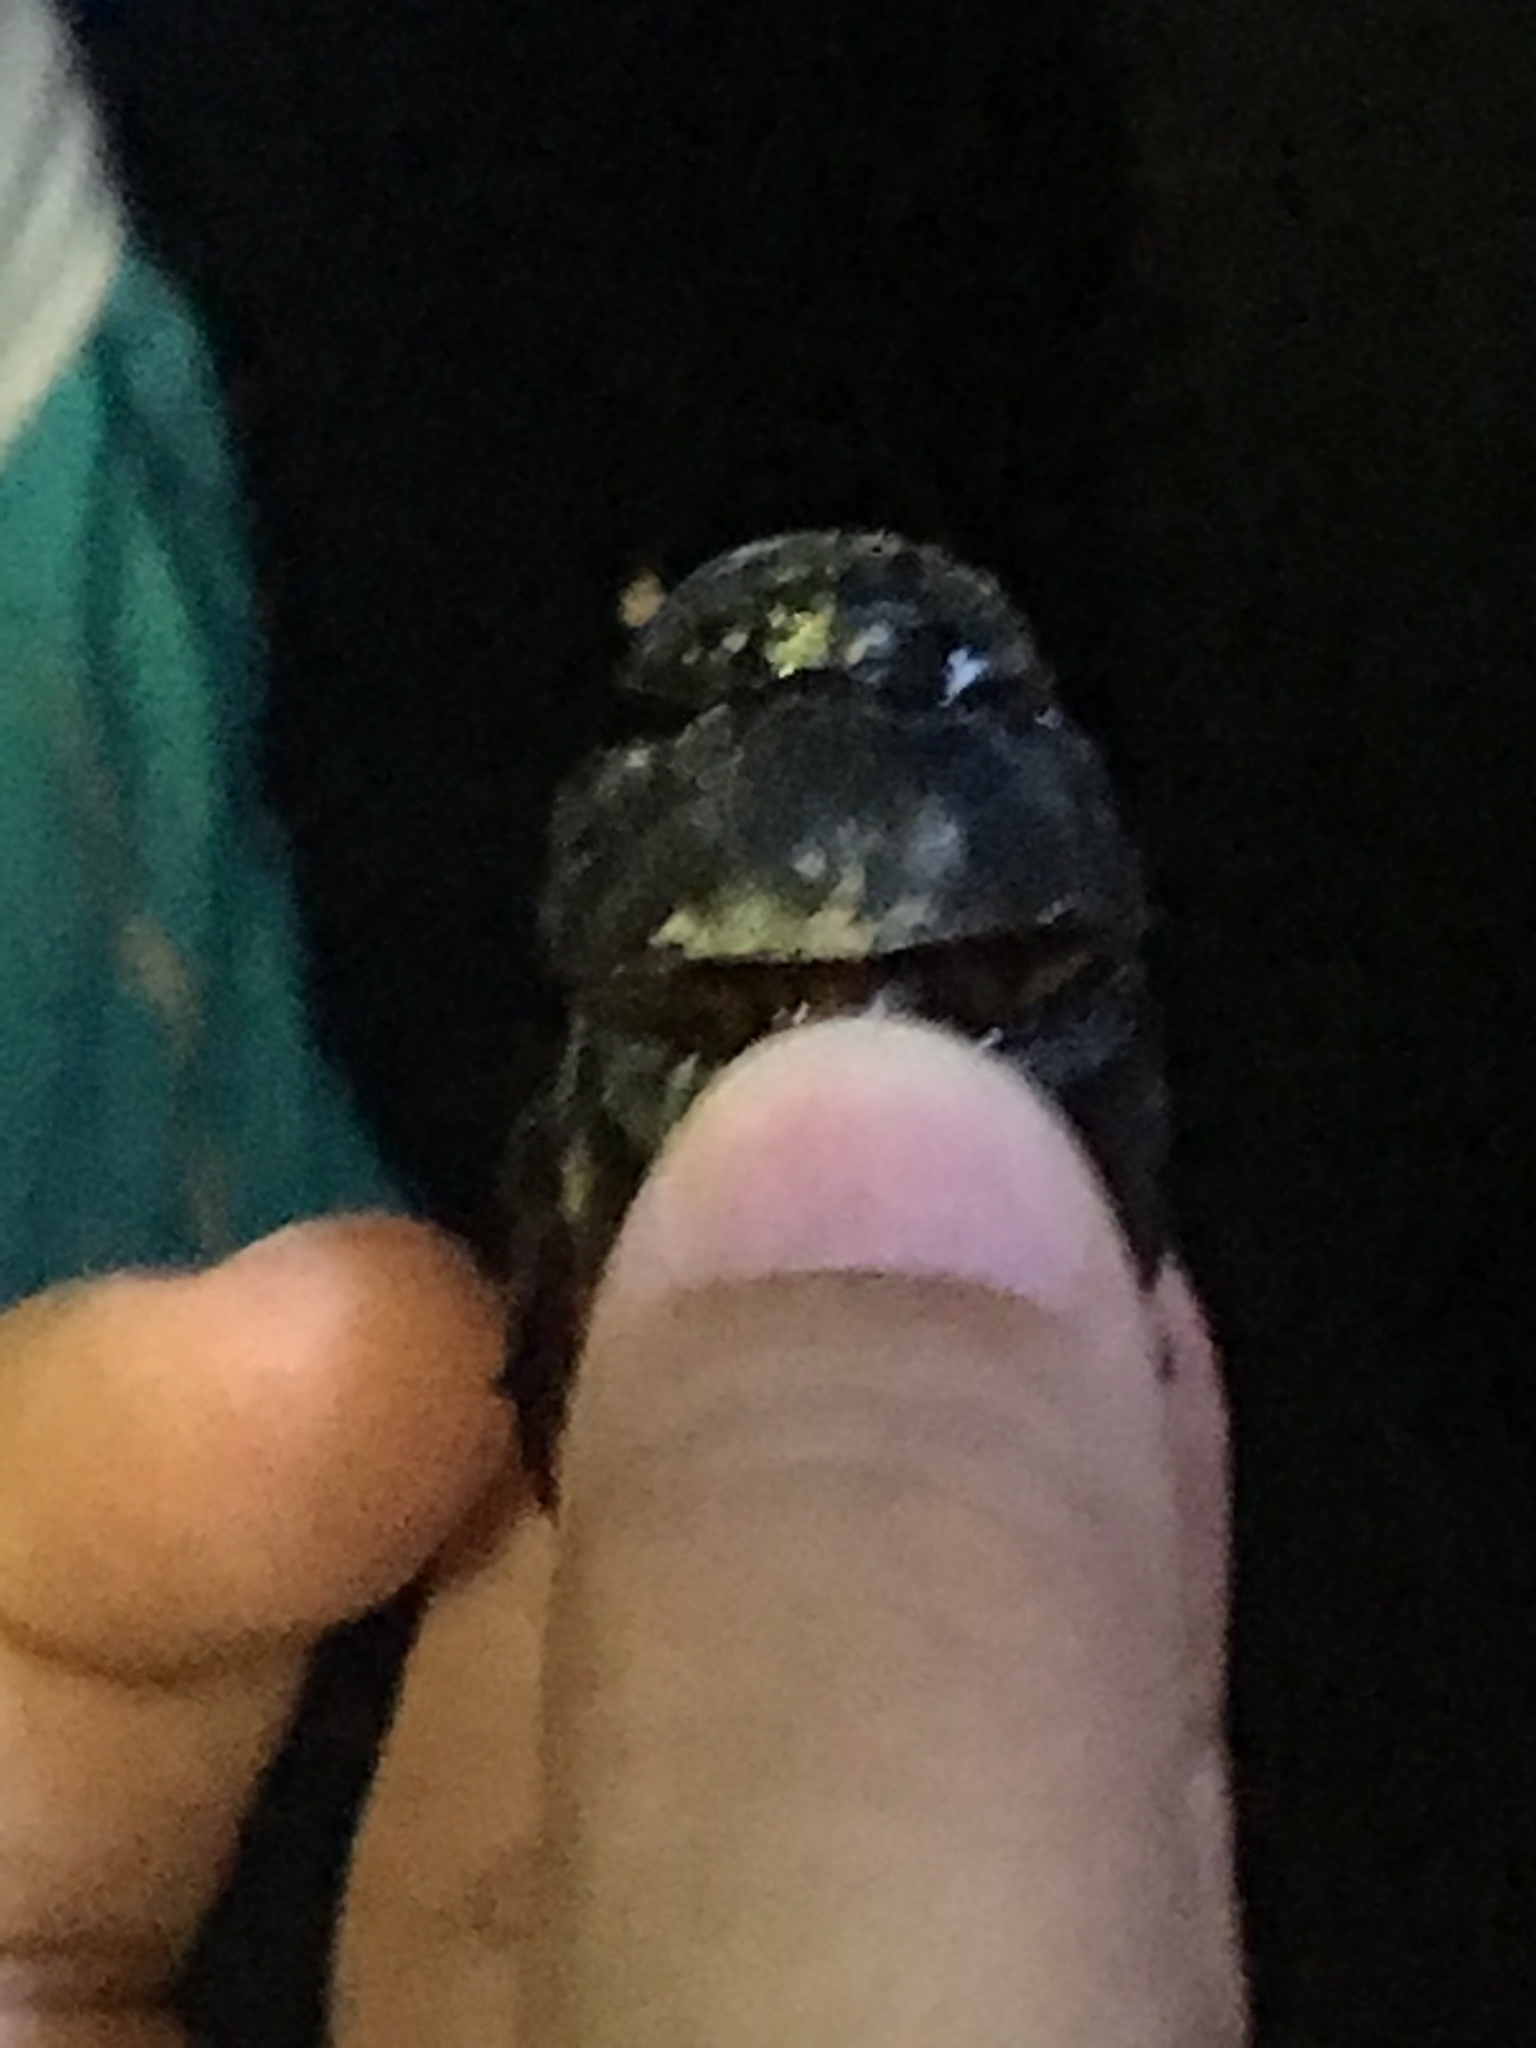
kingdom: Animalia
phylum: Arthropoda
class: Insecta
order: Coleoptera
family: Scarabaeidae
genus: Catharsius
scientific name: Catharsius molossus
